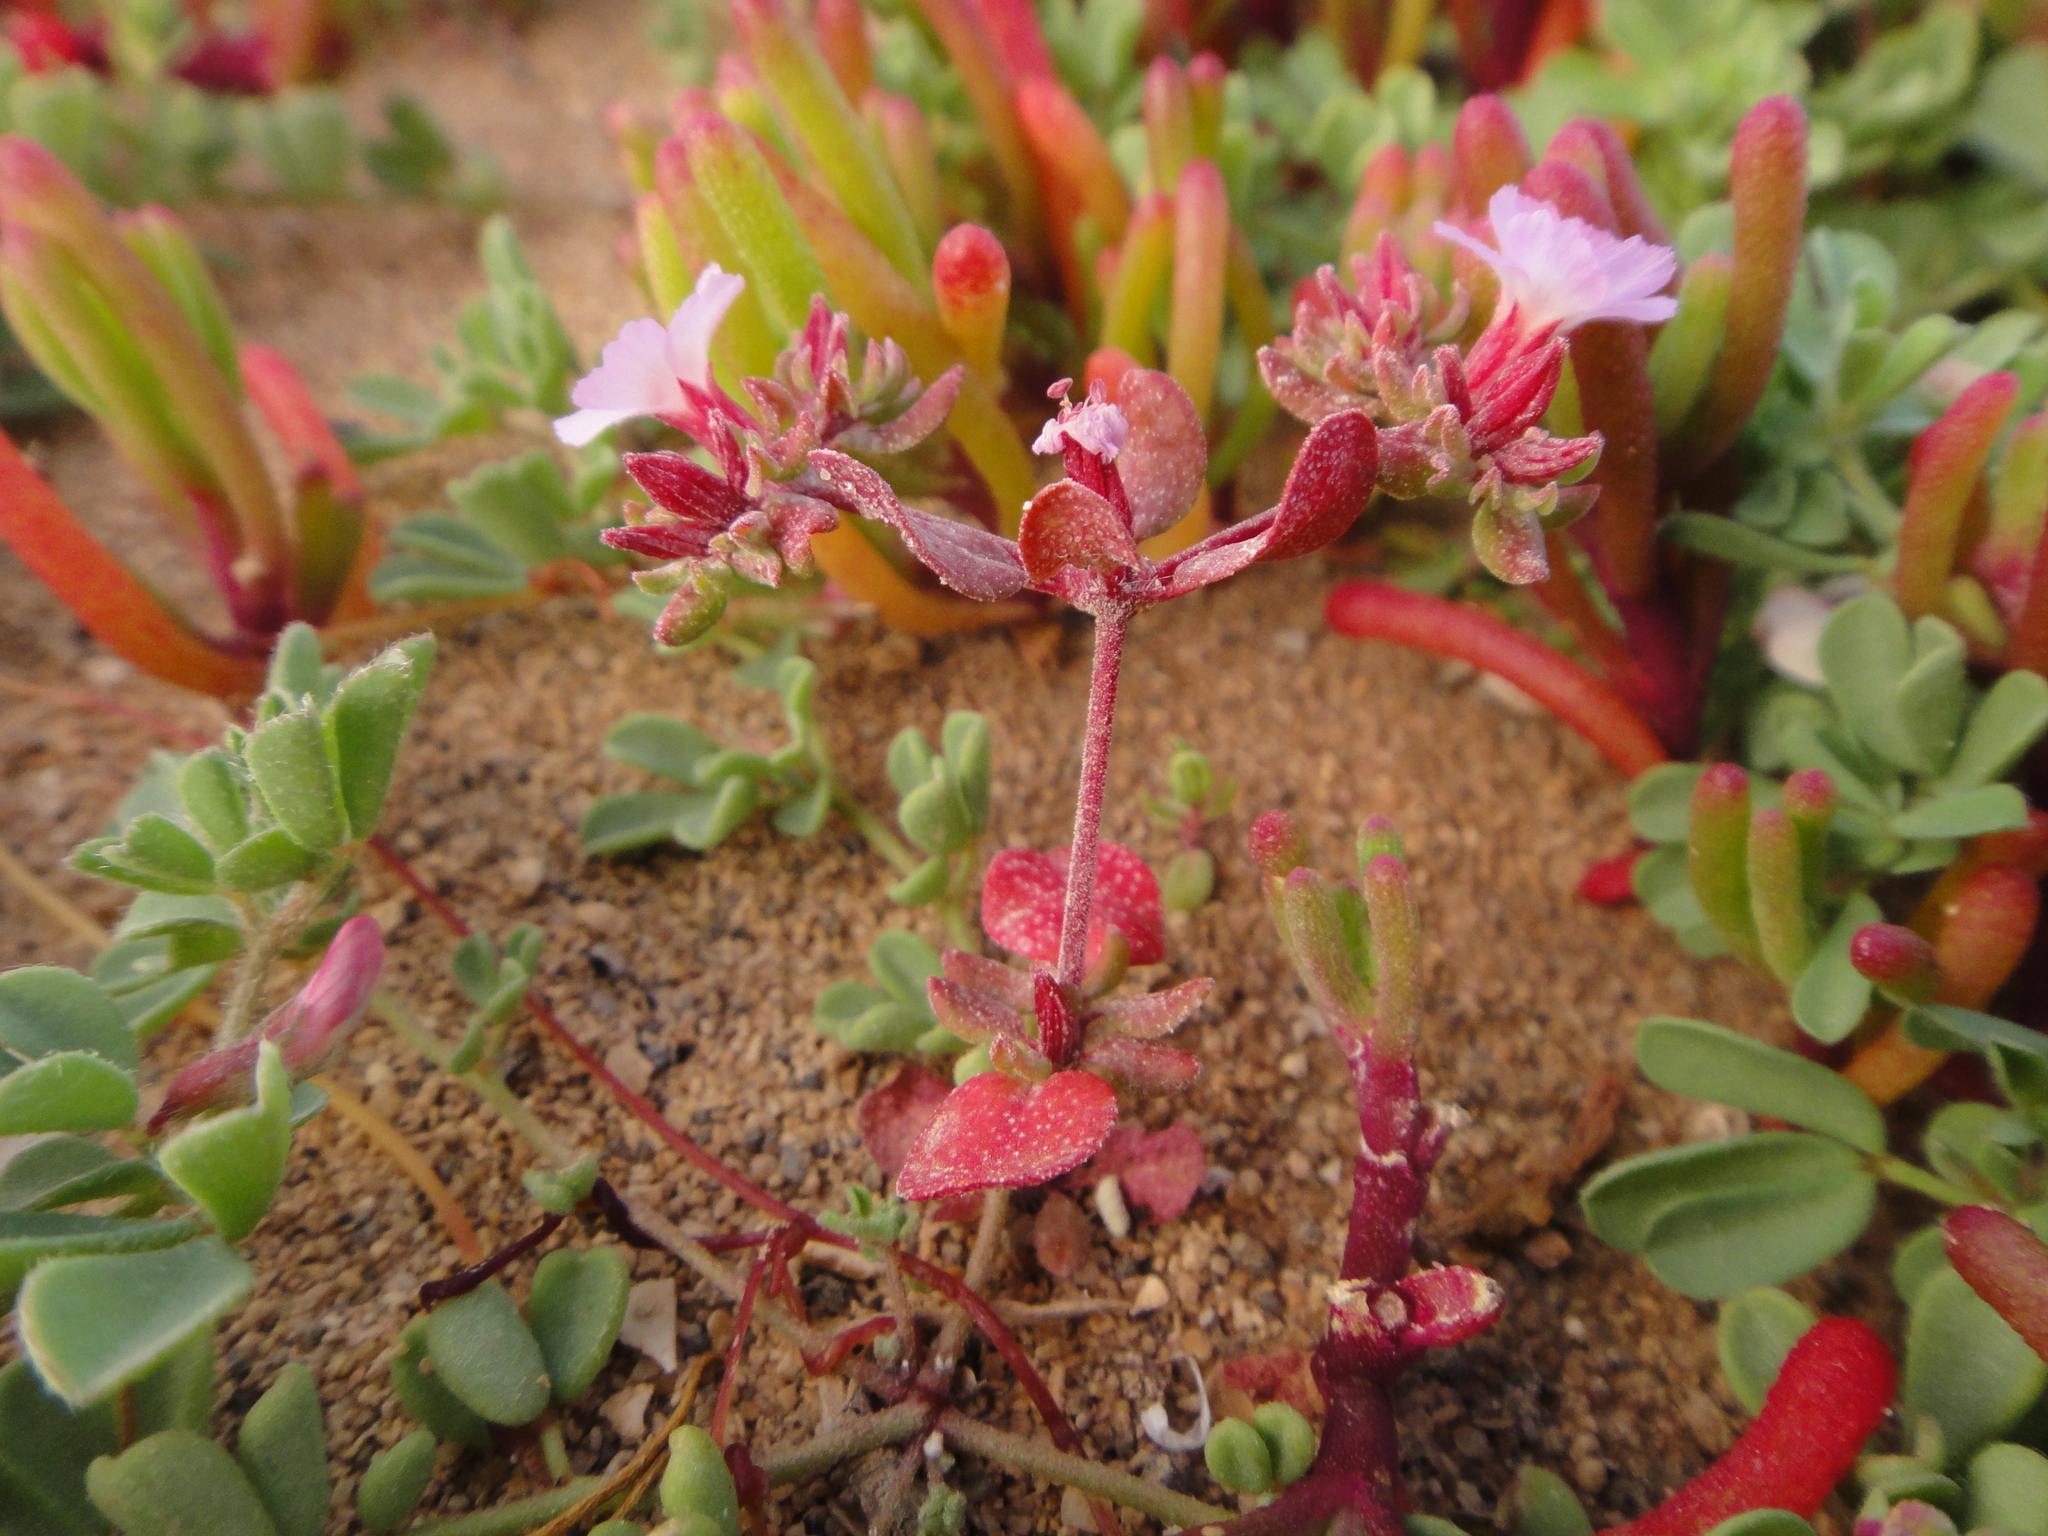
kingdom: Plantae
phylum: Tracheophyta
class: Magnoliopsida
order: Caryophyllales
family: Frankeniaceae
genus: Frankenia
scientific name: Frankenia pulverulenta
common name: European seaheath
